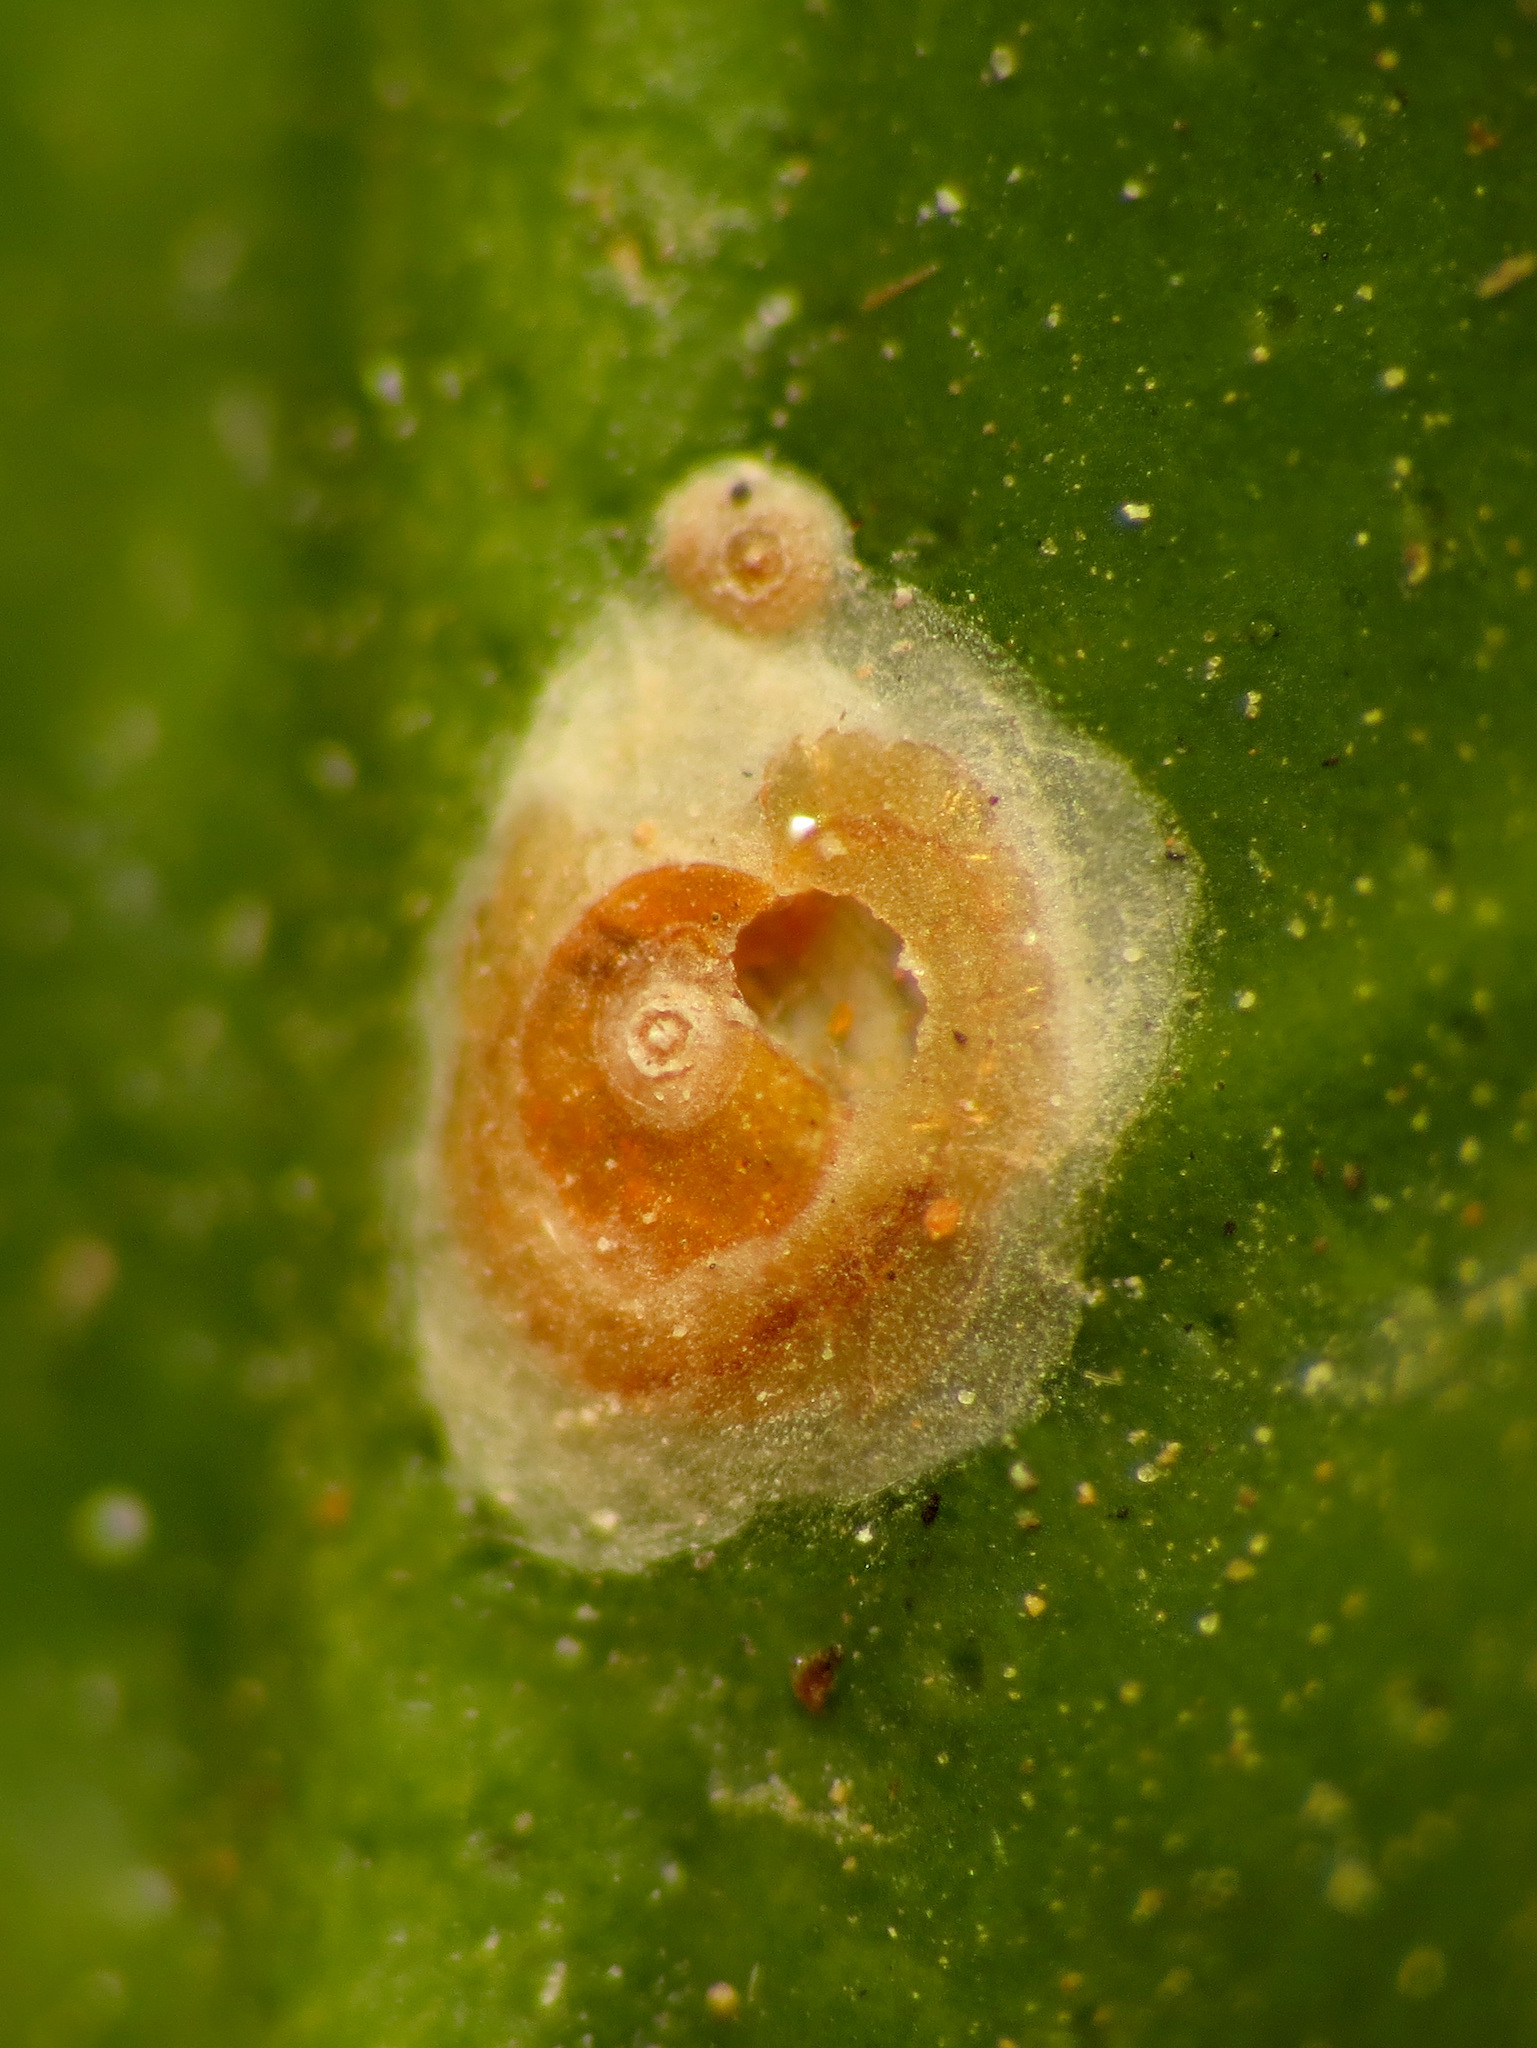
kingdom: Animalia
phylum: Arthropoda
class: Insecta
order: Hemiptera
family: Diaspididae
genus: Aonidiella
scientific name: Aonidiella aurantii
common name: California red scale
